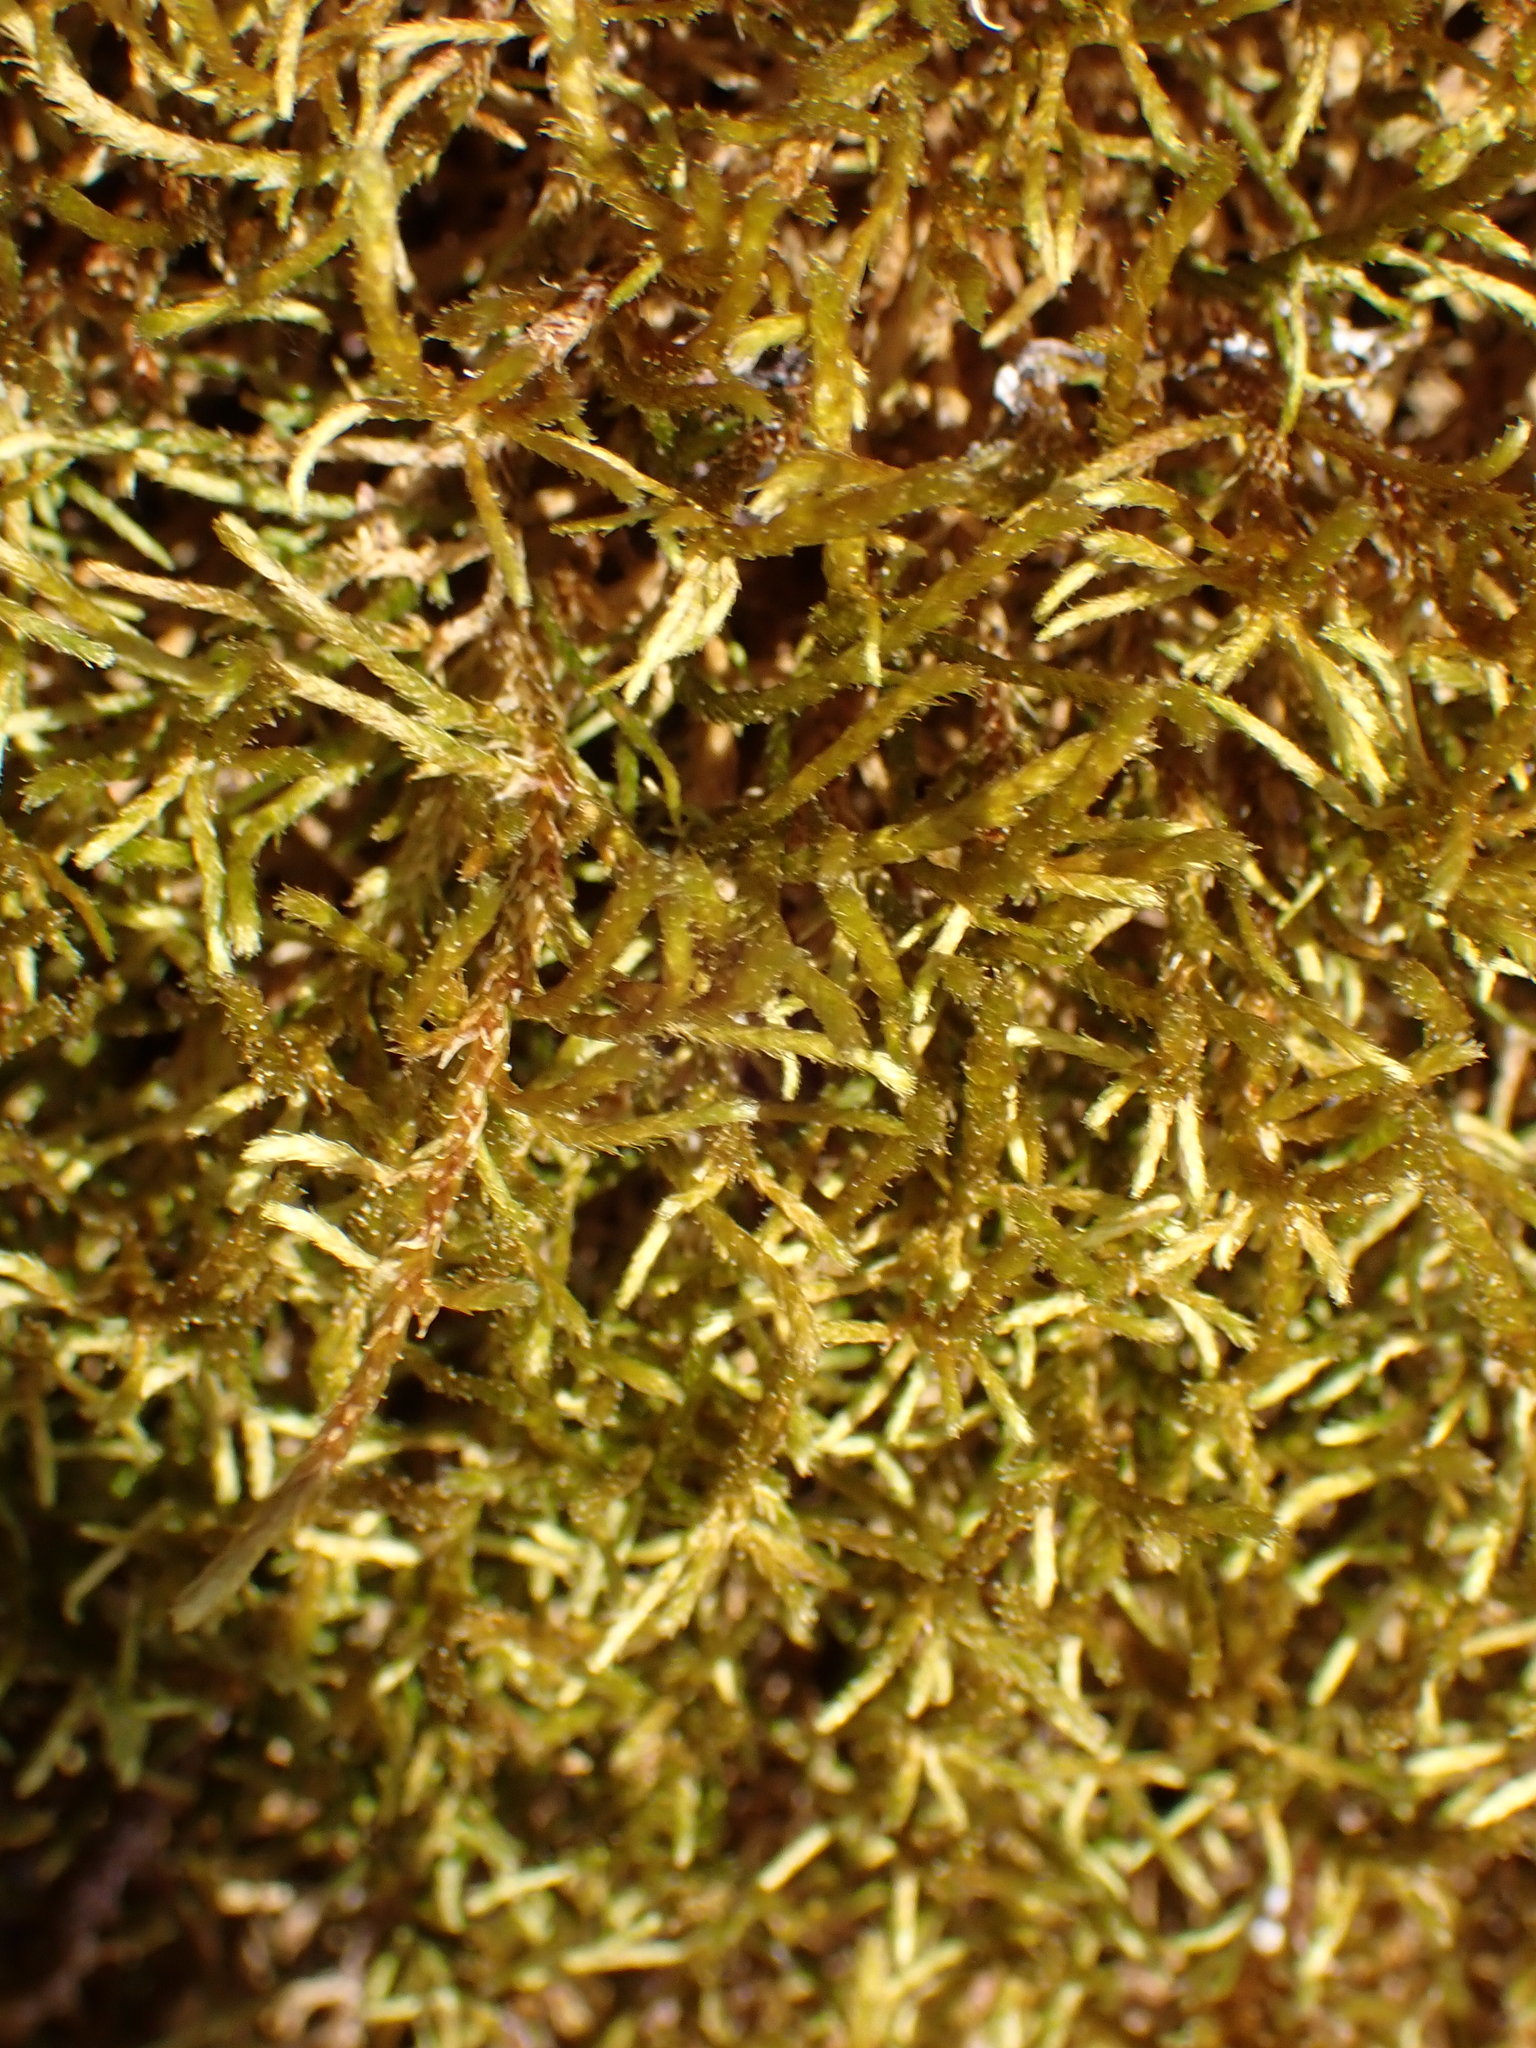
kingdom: Plantae
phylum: Bryophyta
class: Bryopsida
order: Hypnales
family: Antitrichiaceae
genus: Antitrichia
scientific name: Antitrichia californica
